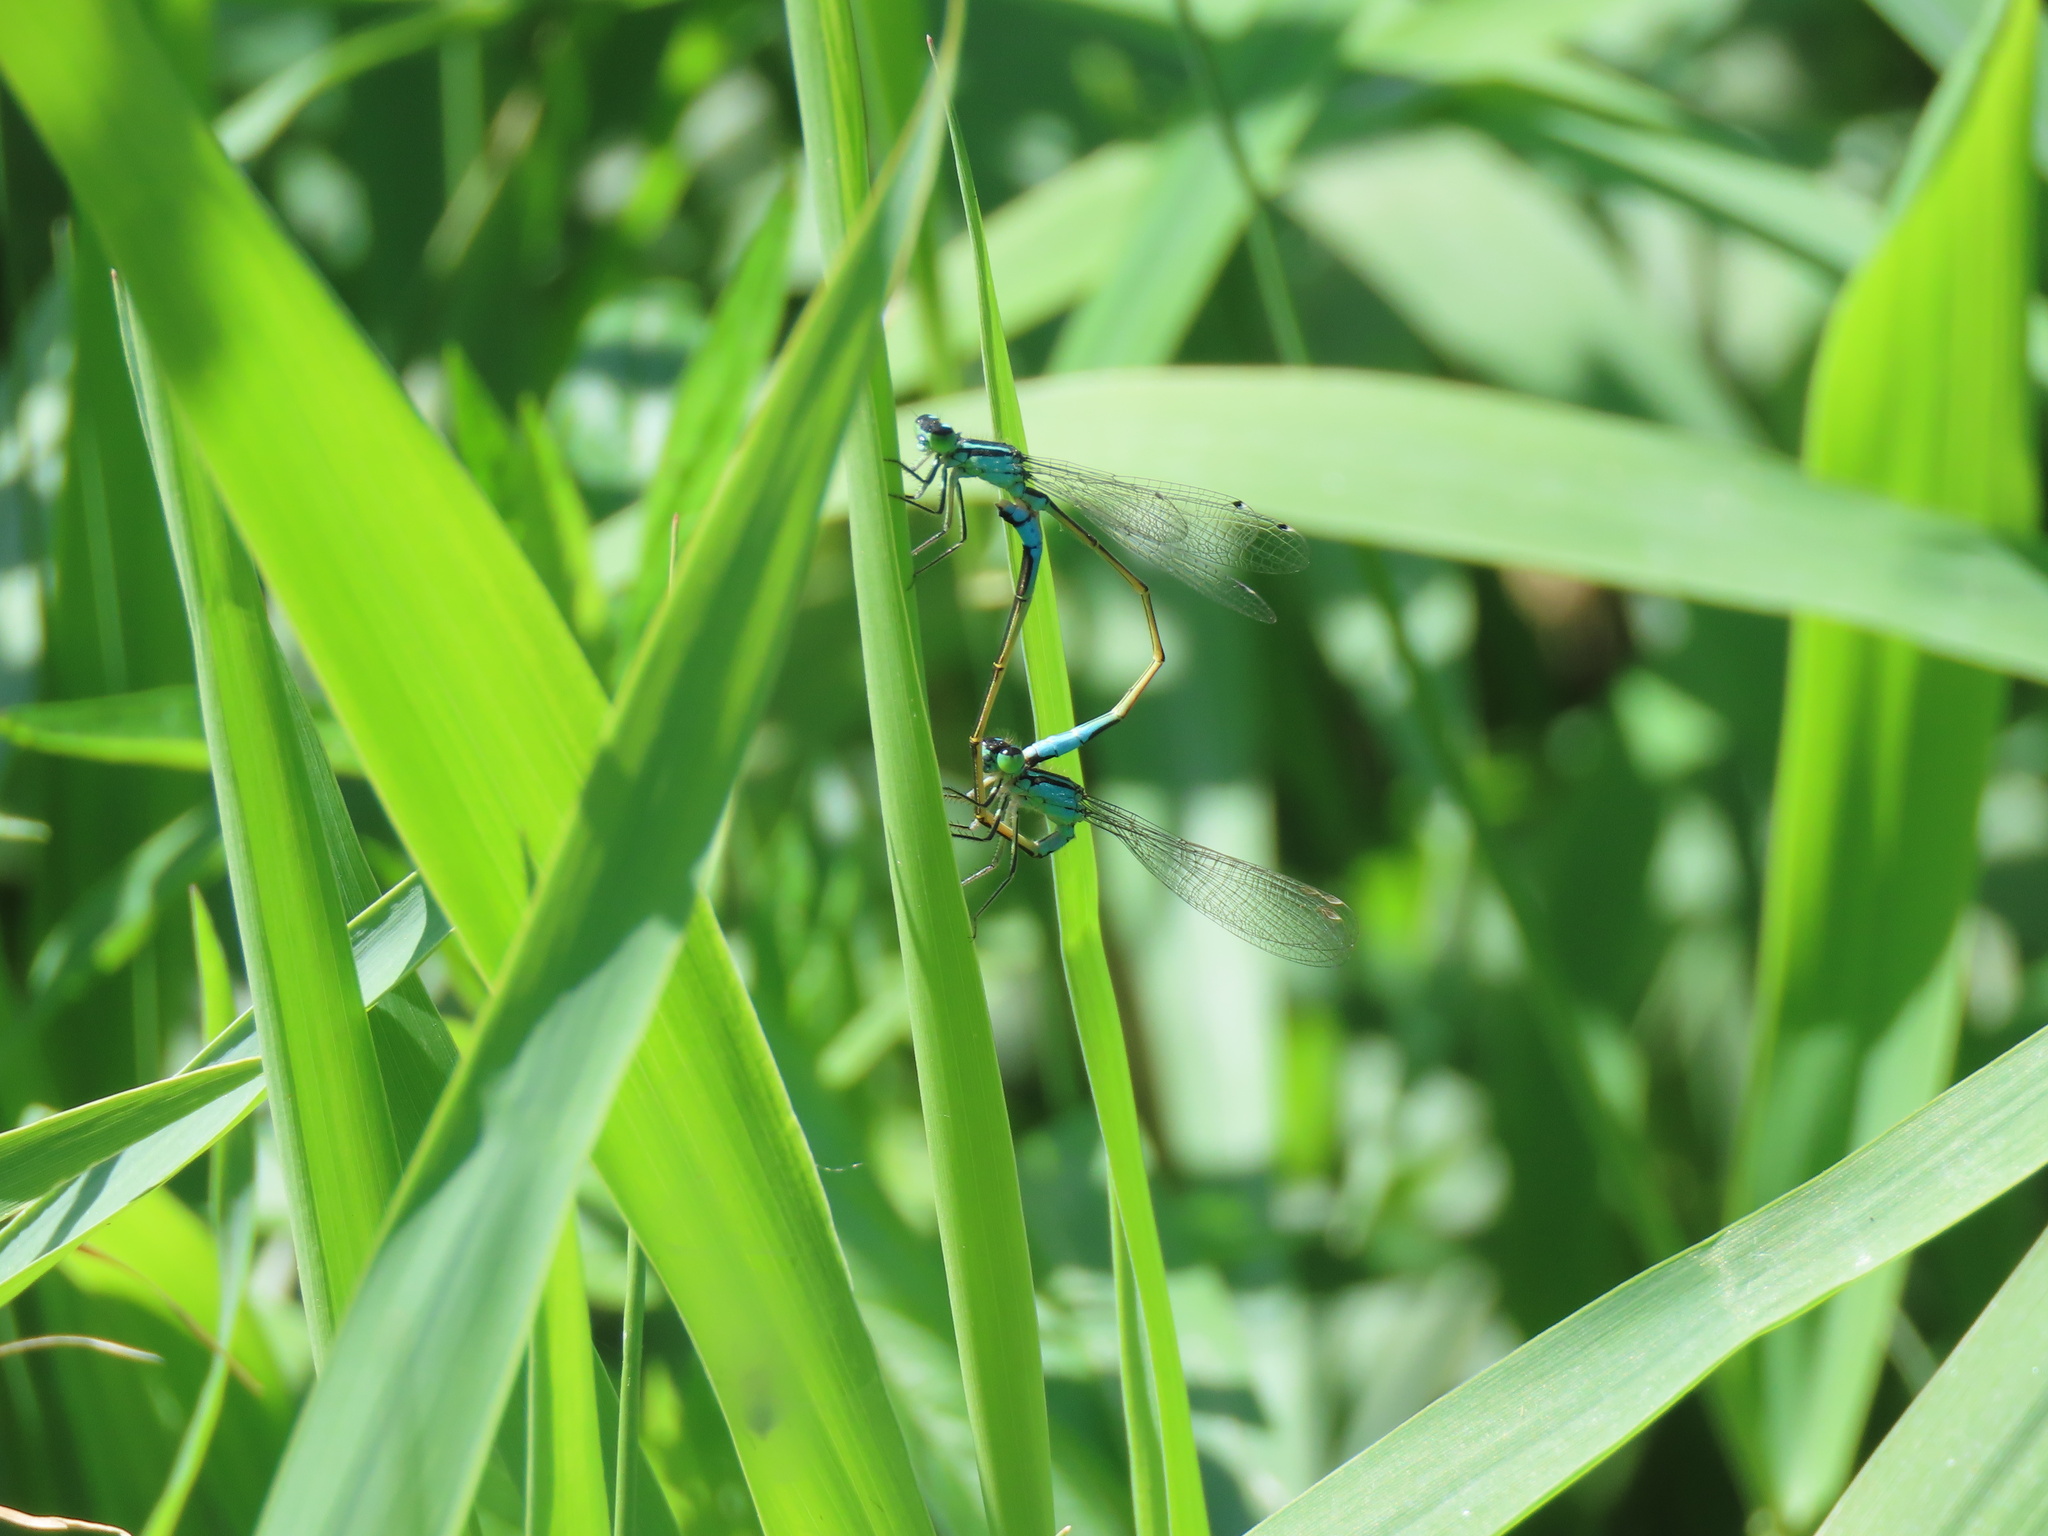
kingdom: Animalia
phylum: Arthropoda
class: Insecta
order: Odonata
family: Coenagrionidae
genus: Ischnura
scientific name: Ischnura elegans
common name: Blue-tailed damselfly
